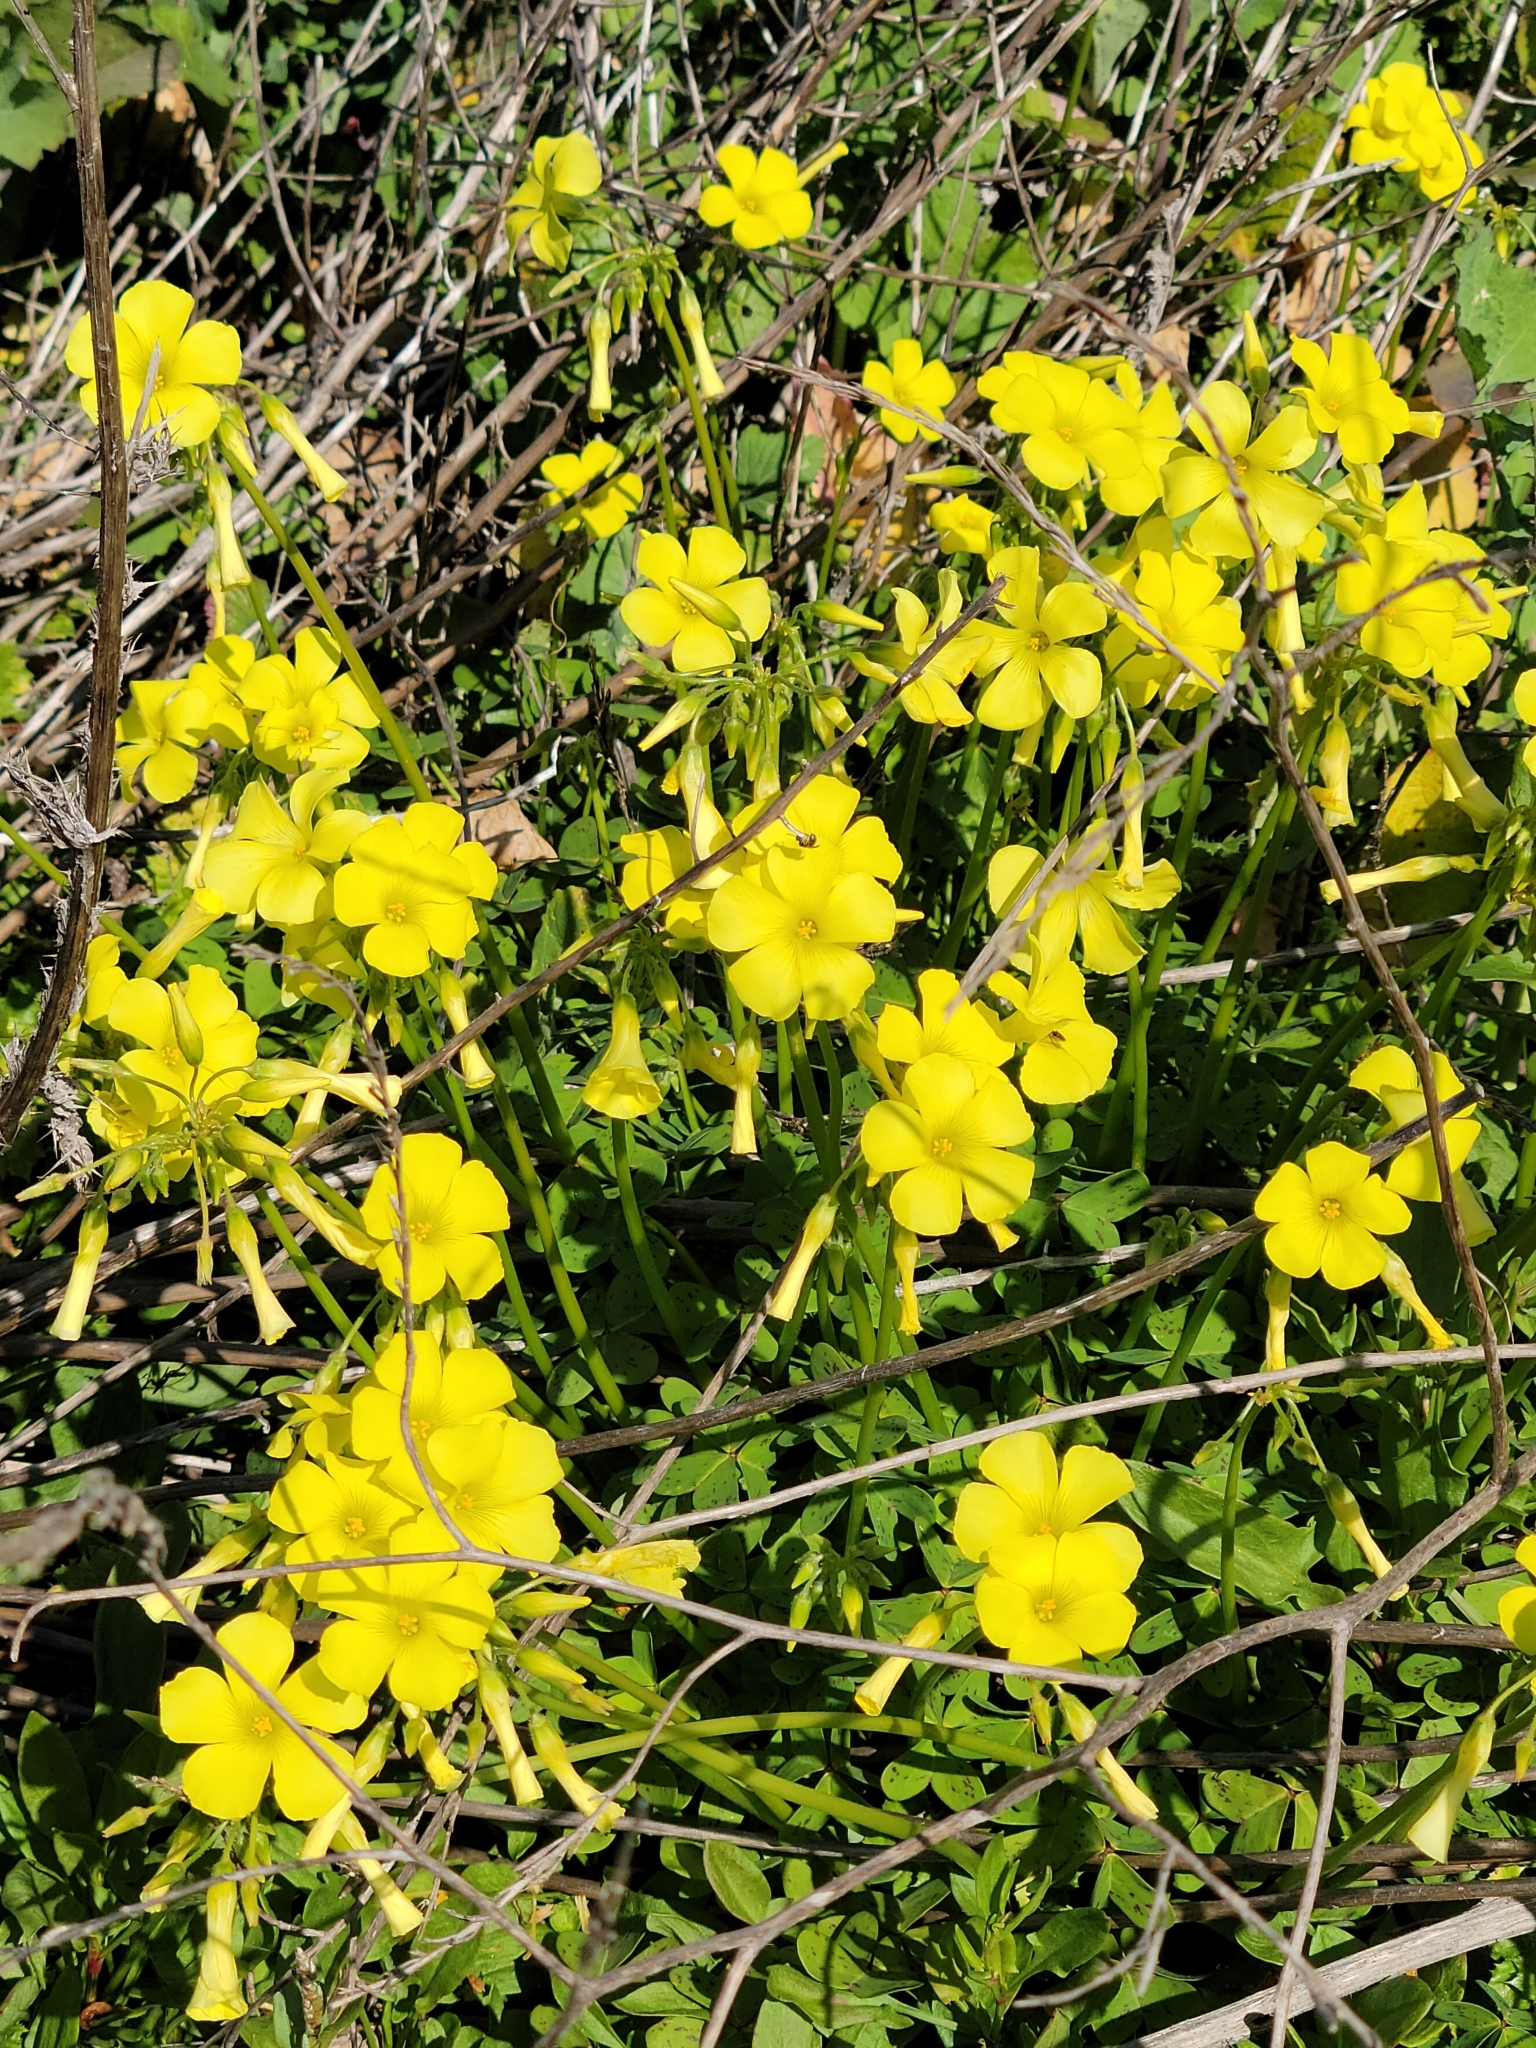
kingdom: Plantae
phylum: Tracheophyta
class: Magnoliopsida
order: Oxalidales
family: Oxalidaceae
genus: Oxalis
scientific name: Oxalis pes-caprae
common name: Bermuda-buttercup
